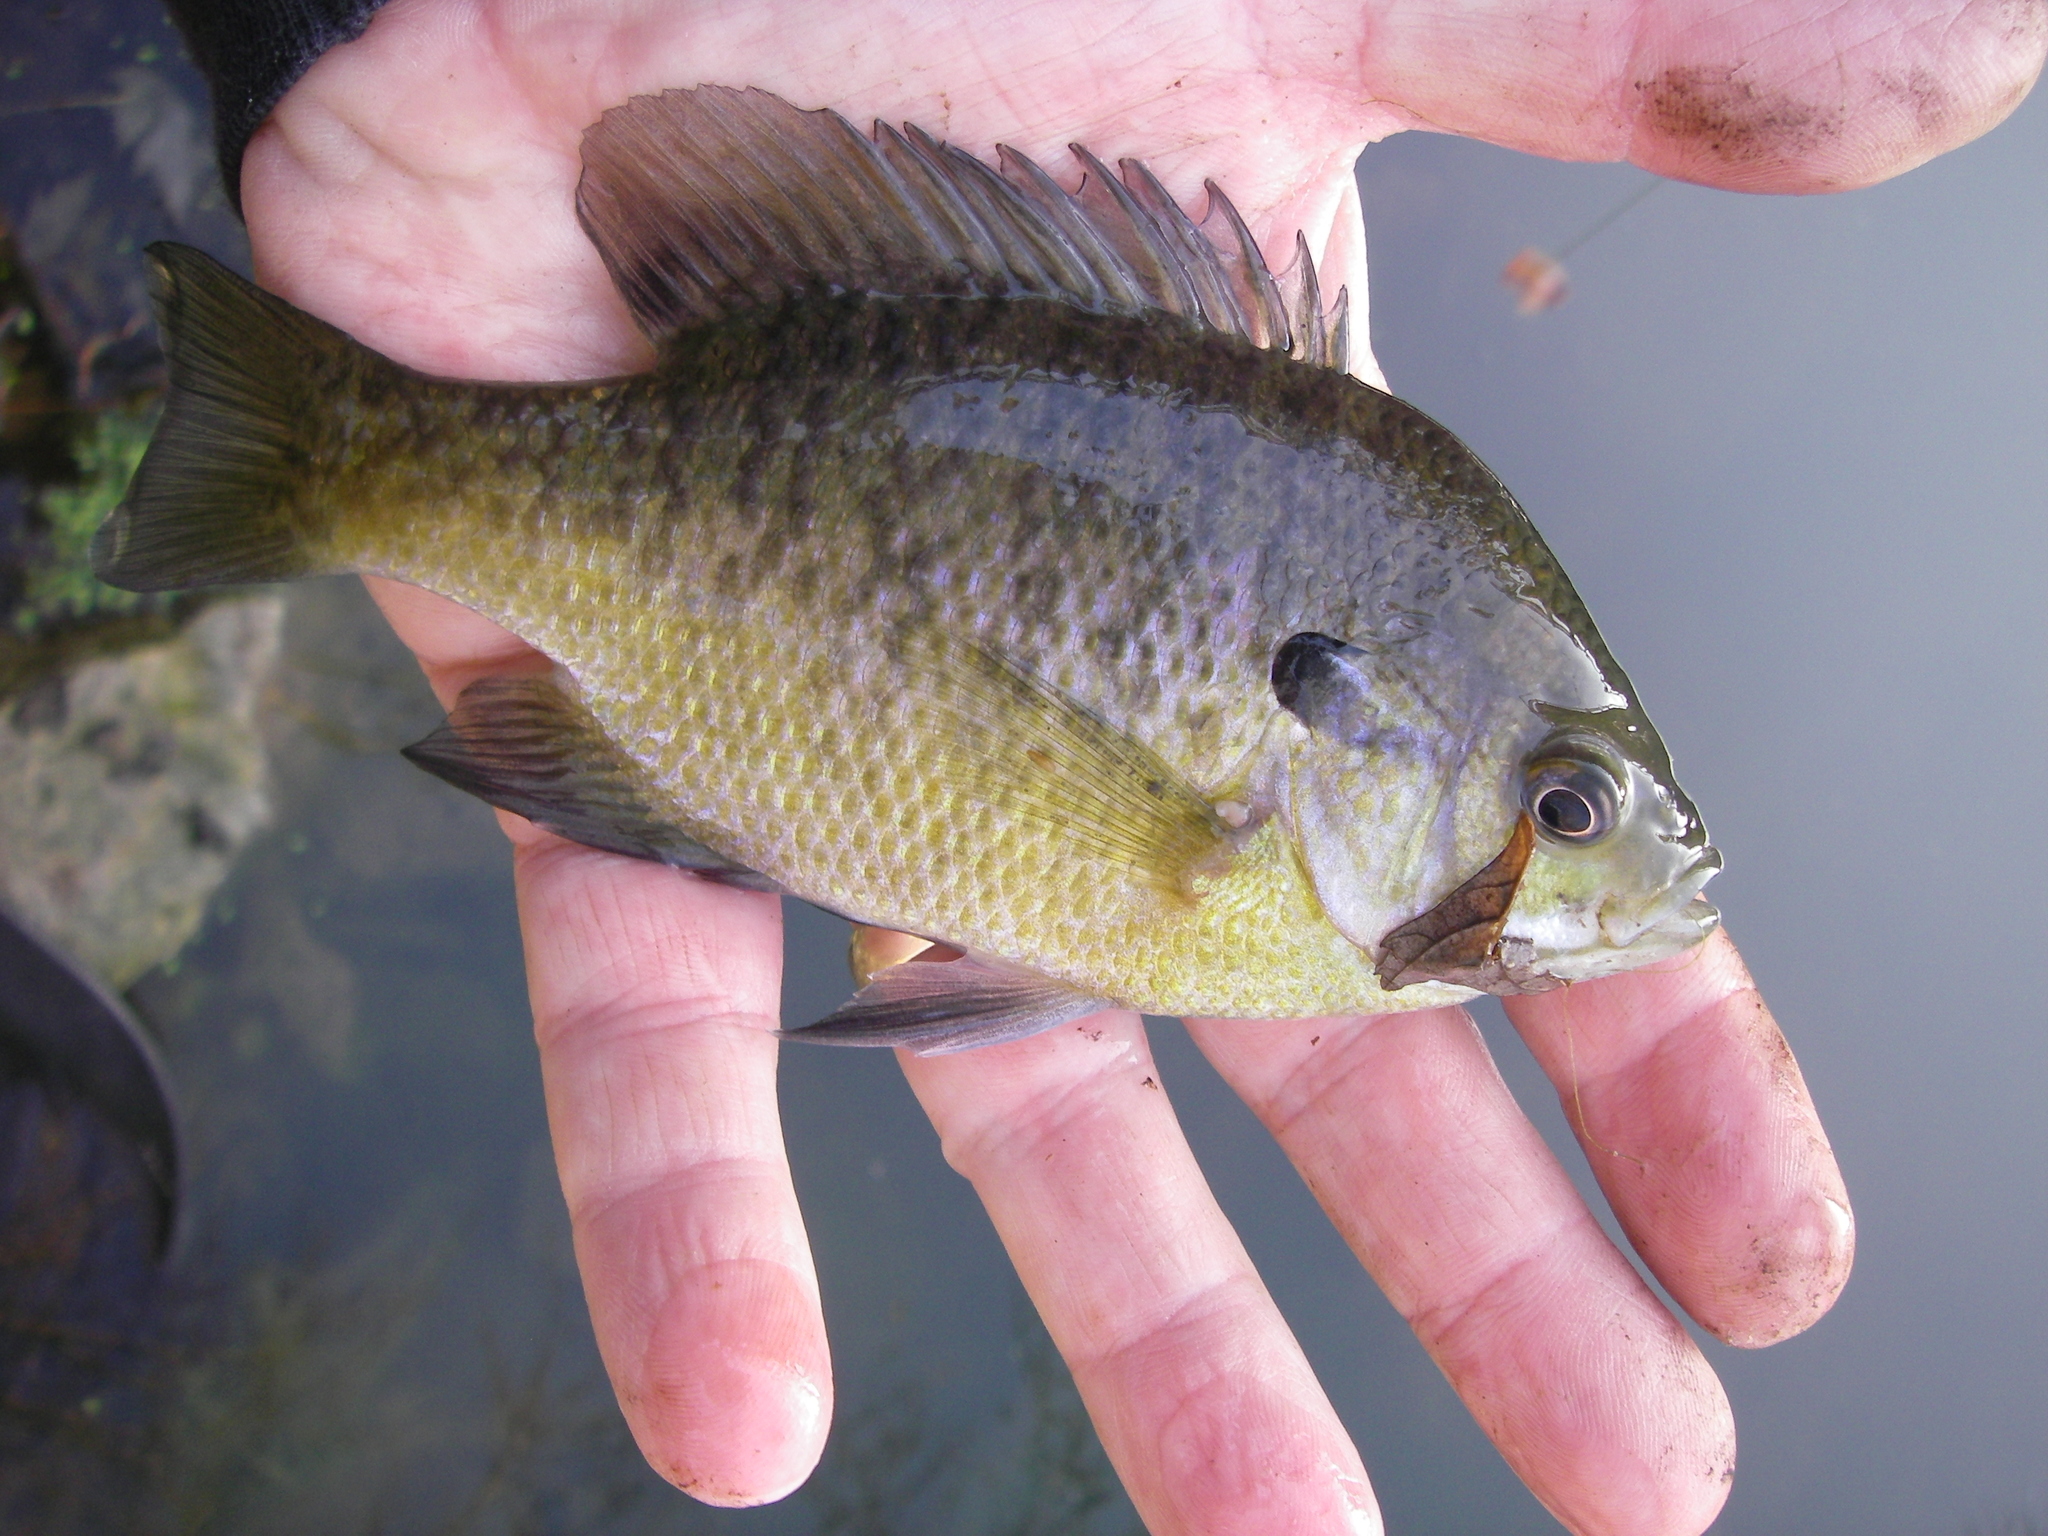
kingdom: Animalia
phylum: Chordata
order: Perciformes
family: Centrarchidae
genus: Lepomis
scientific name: Lepomis macrochirus
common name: Bluegill
